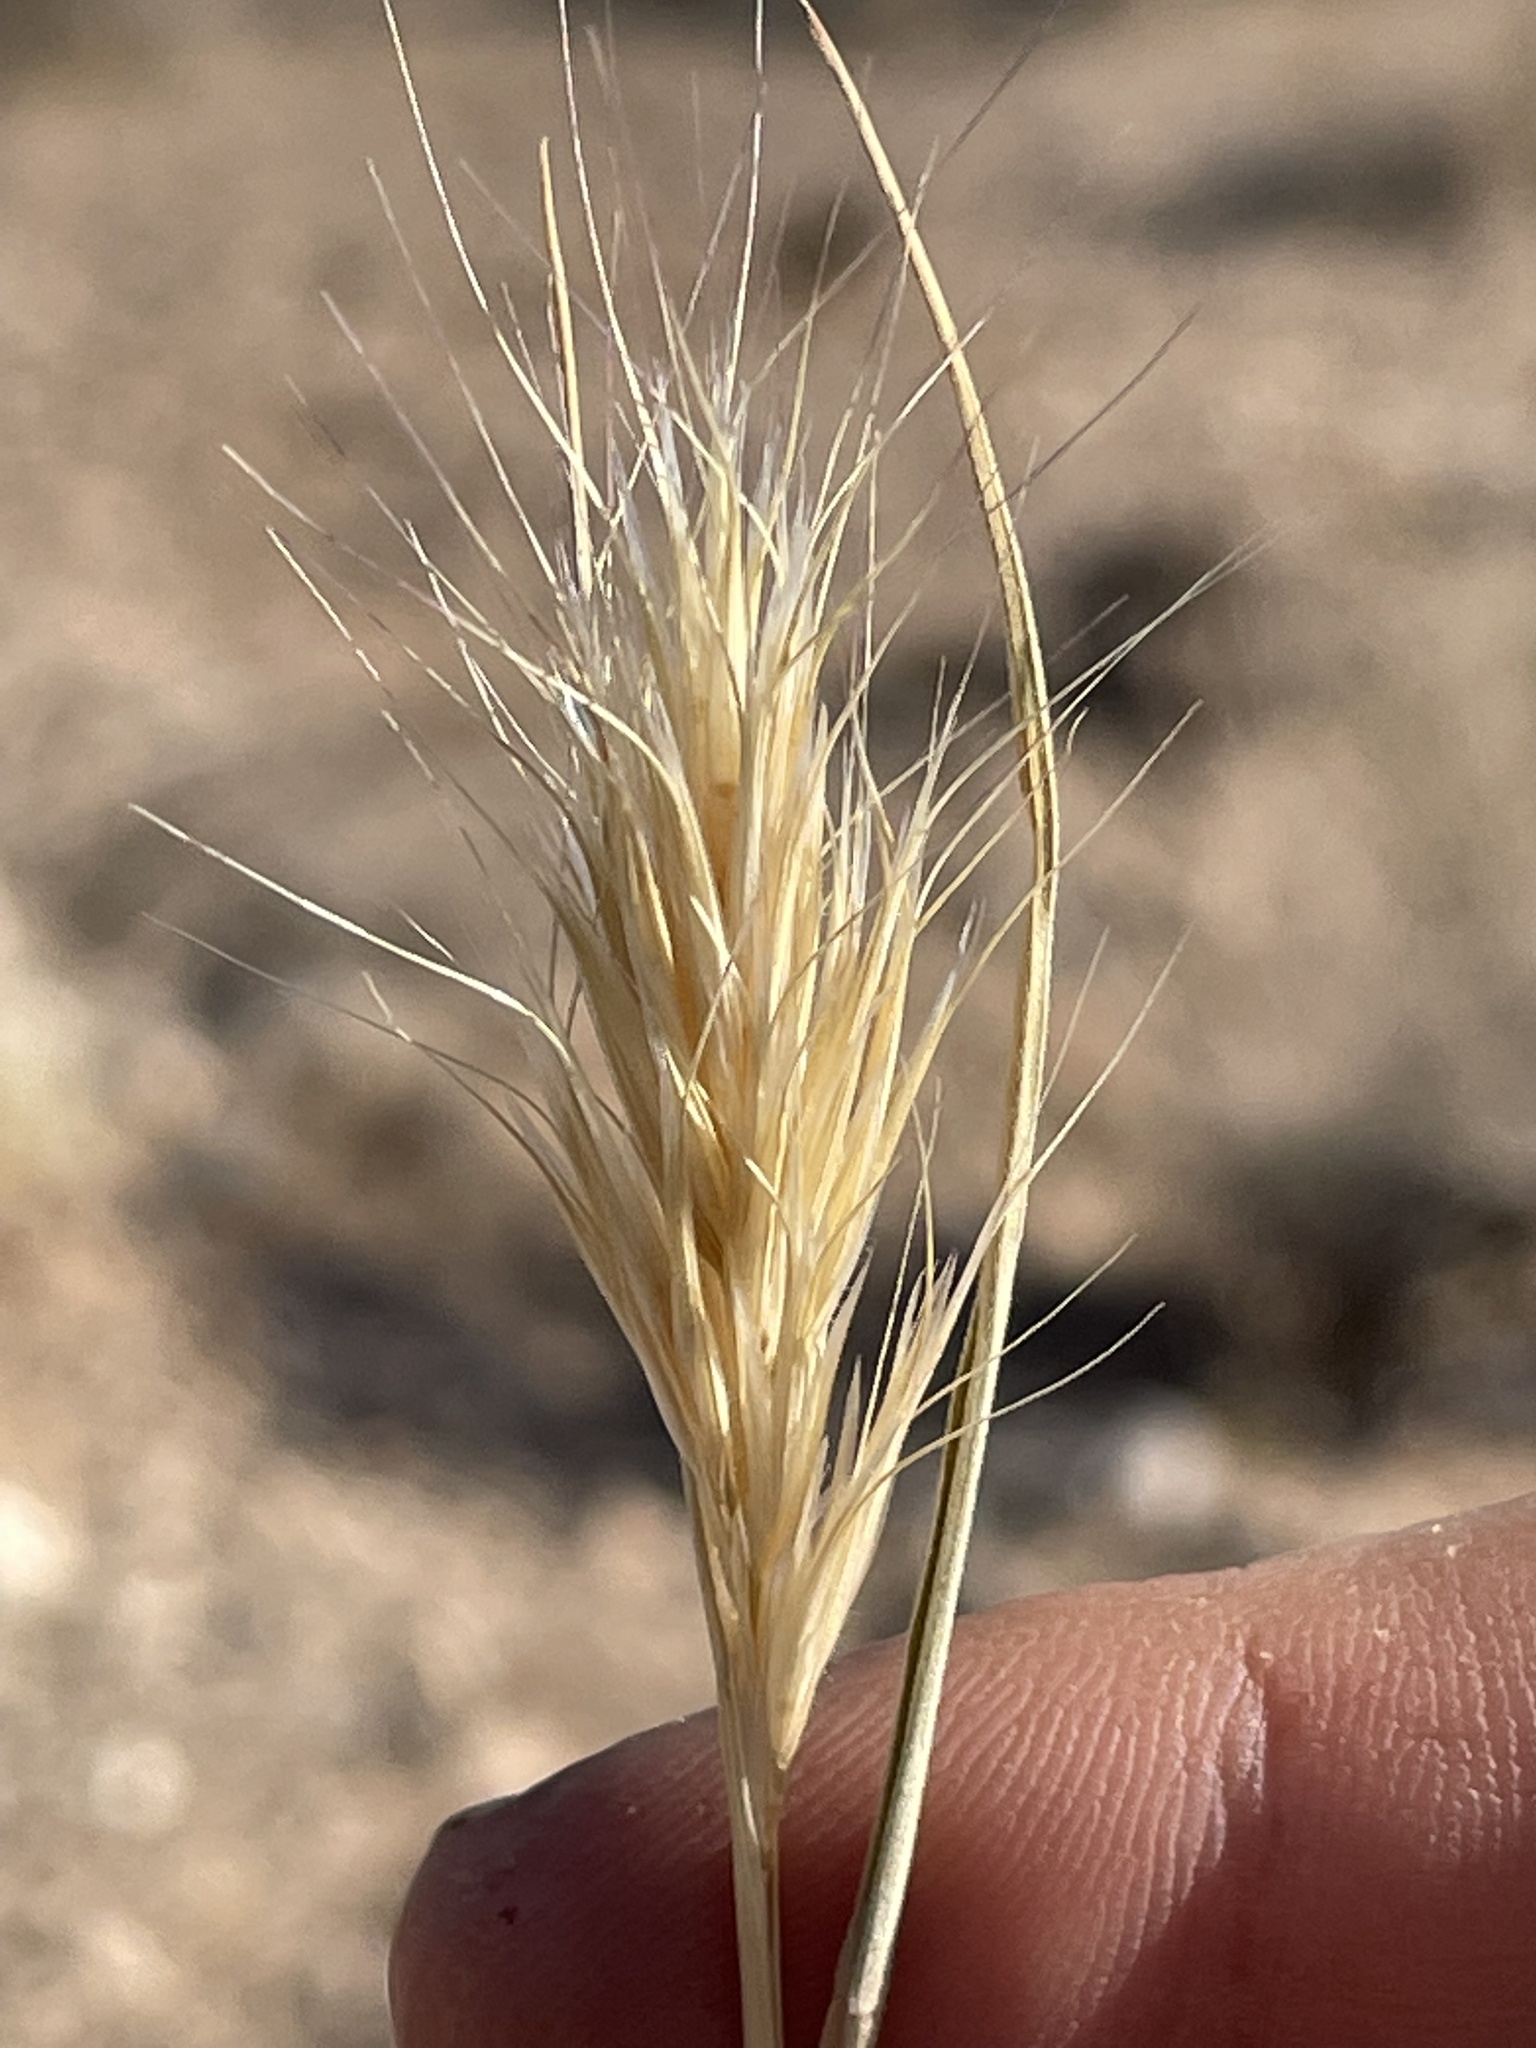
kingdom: Plantae
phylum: Tracheophyta
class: Liliopsida
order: Poales
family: Poaceae
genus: Bromus
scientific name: Bromus rubens
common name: Red brome
